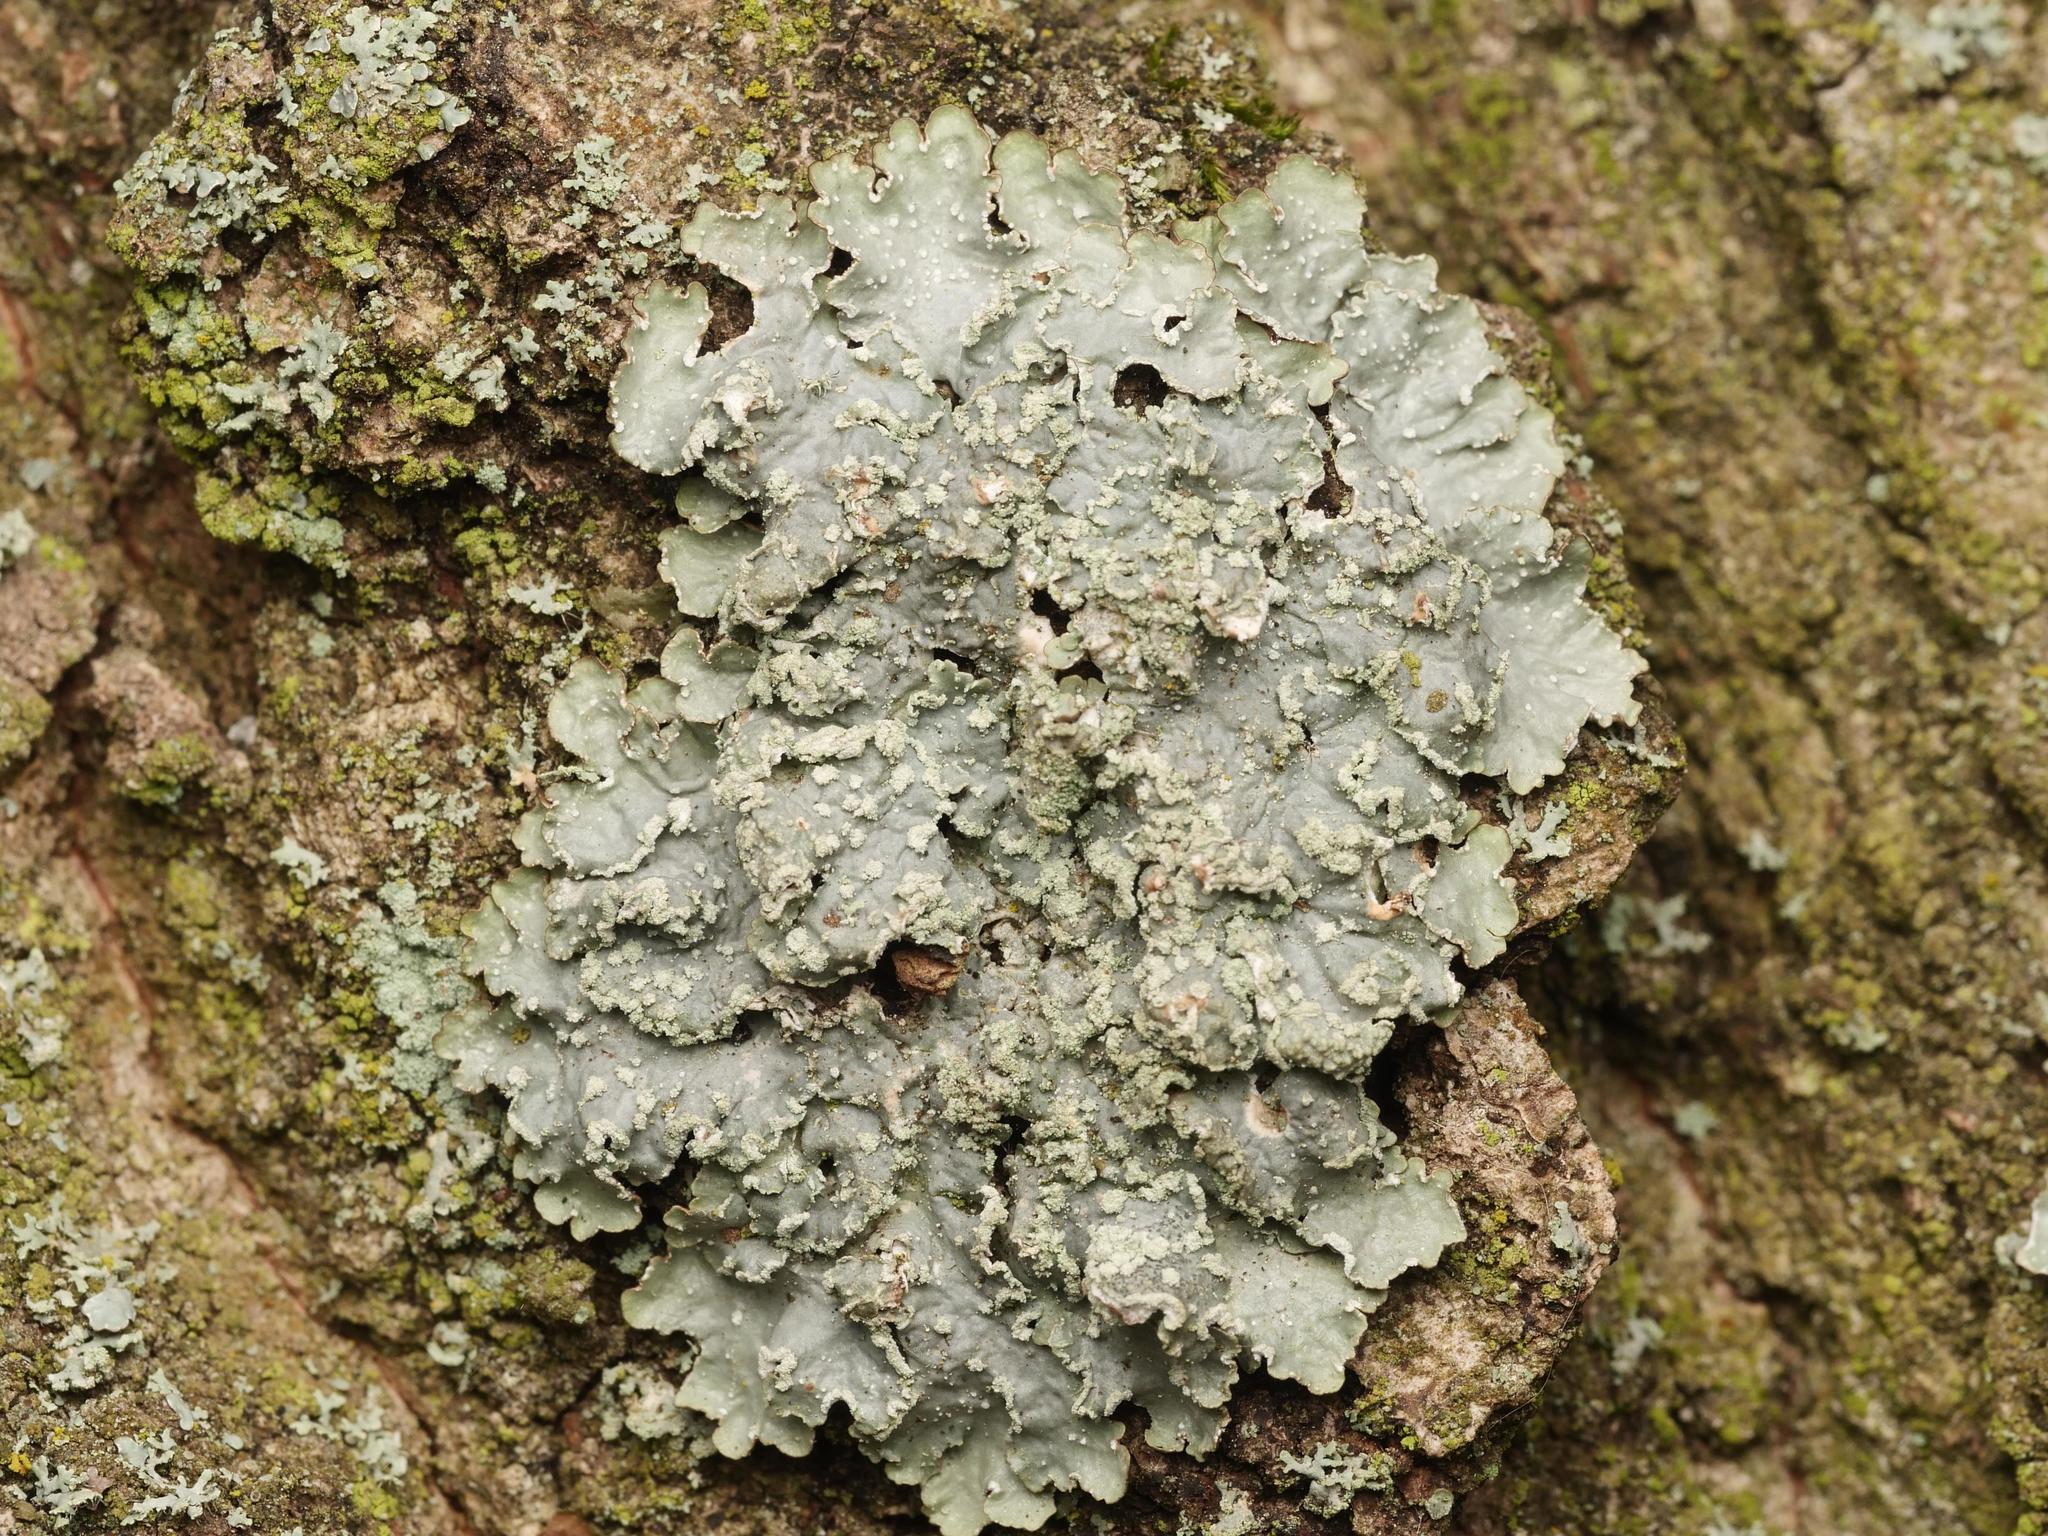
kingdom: Fungi
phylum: Ascomycota
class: Lecanoromycetes
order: Lecanorales
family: Parmeliaceae
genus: Punctelia
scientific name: Punctelia jeckeri
